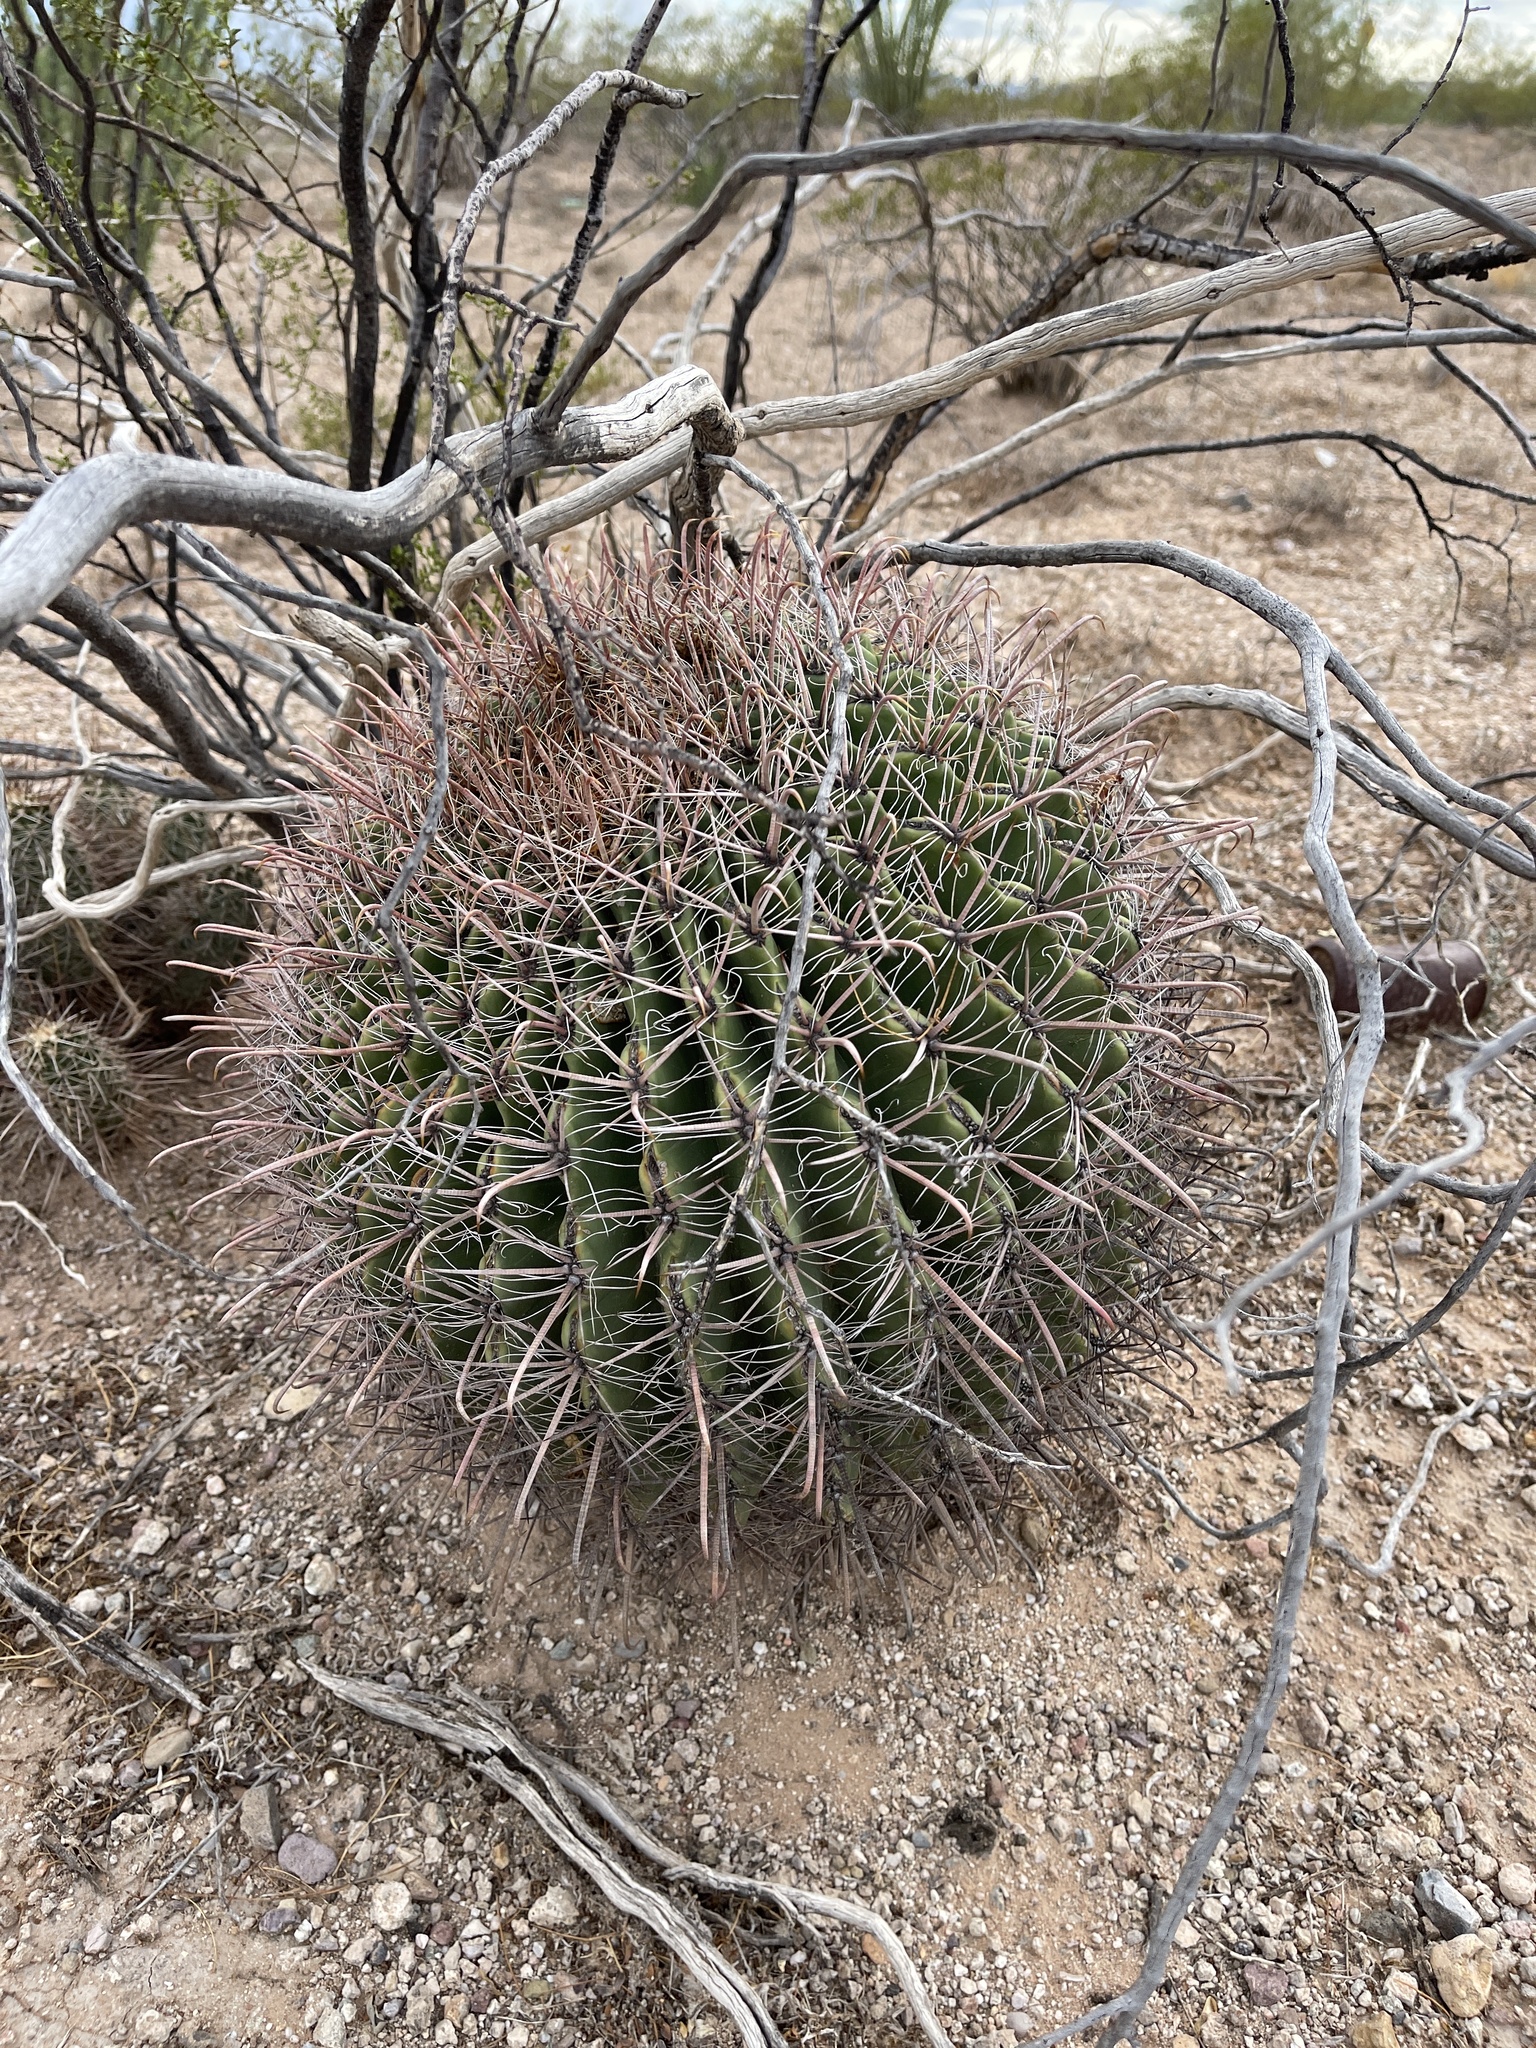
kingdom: Plantae
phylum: Tracheophyta
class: Magnoliopsida
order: Caryophyllales
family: Cactaceae
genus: Ferocactus
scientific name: Ferocactus wislizeni
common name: Candy barrel cactus
